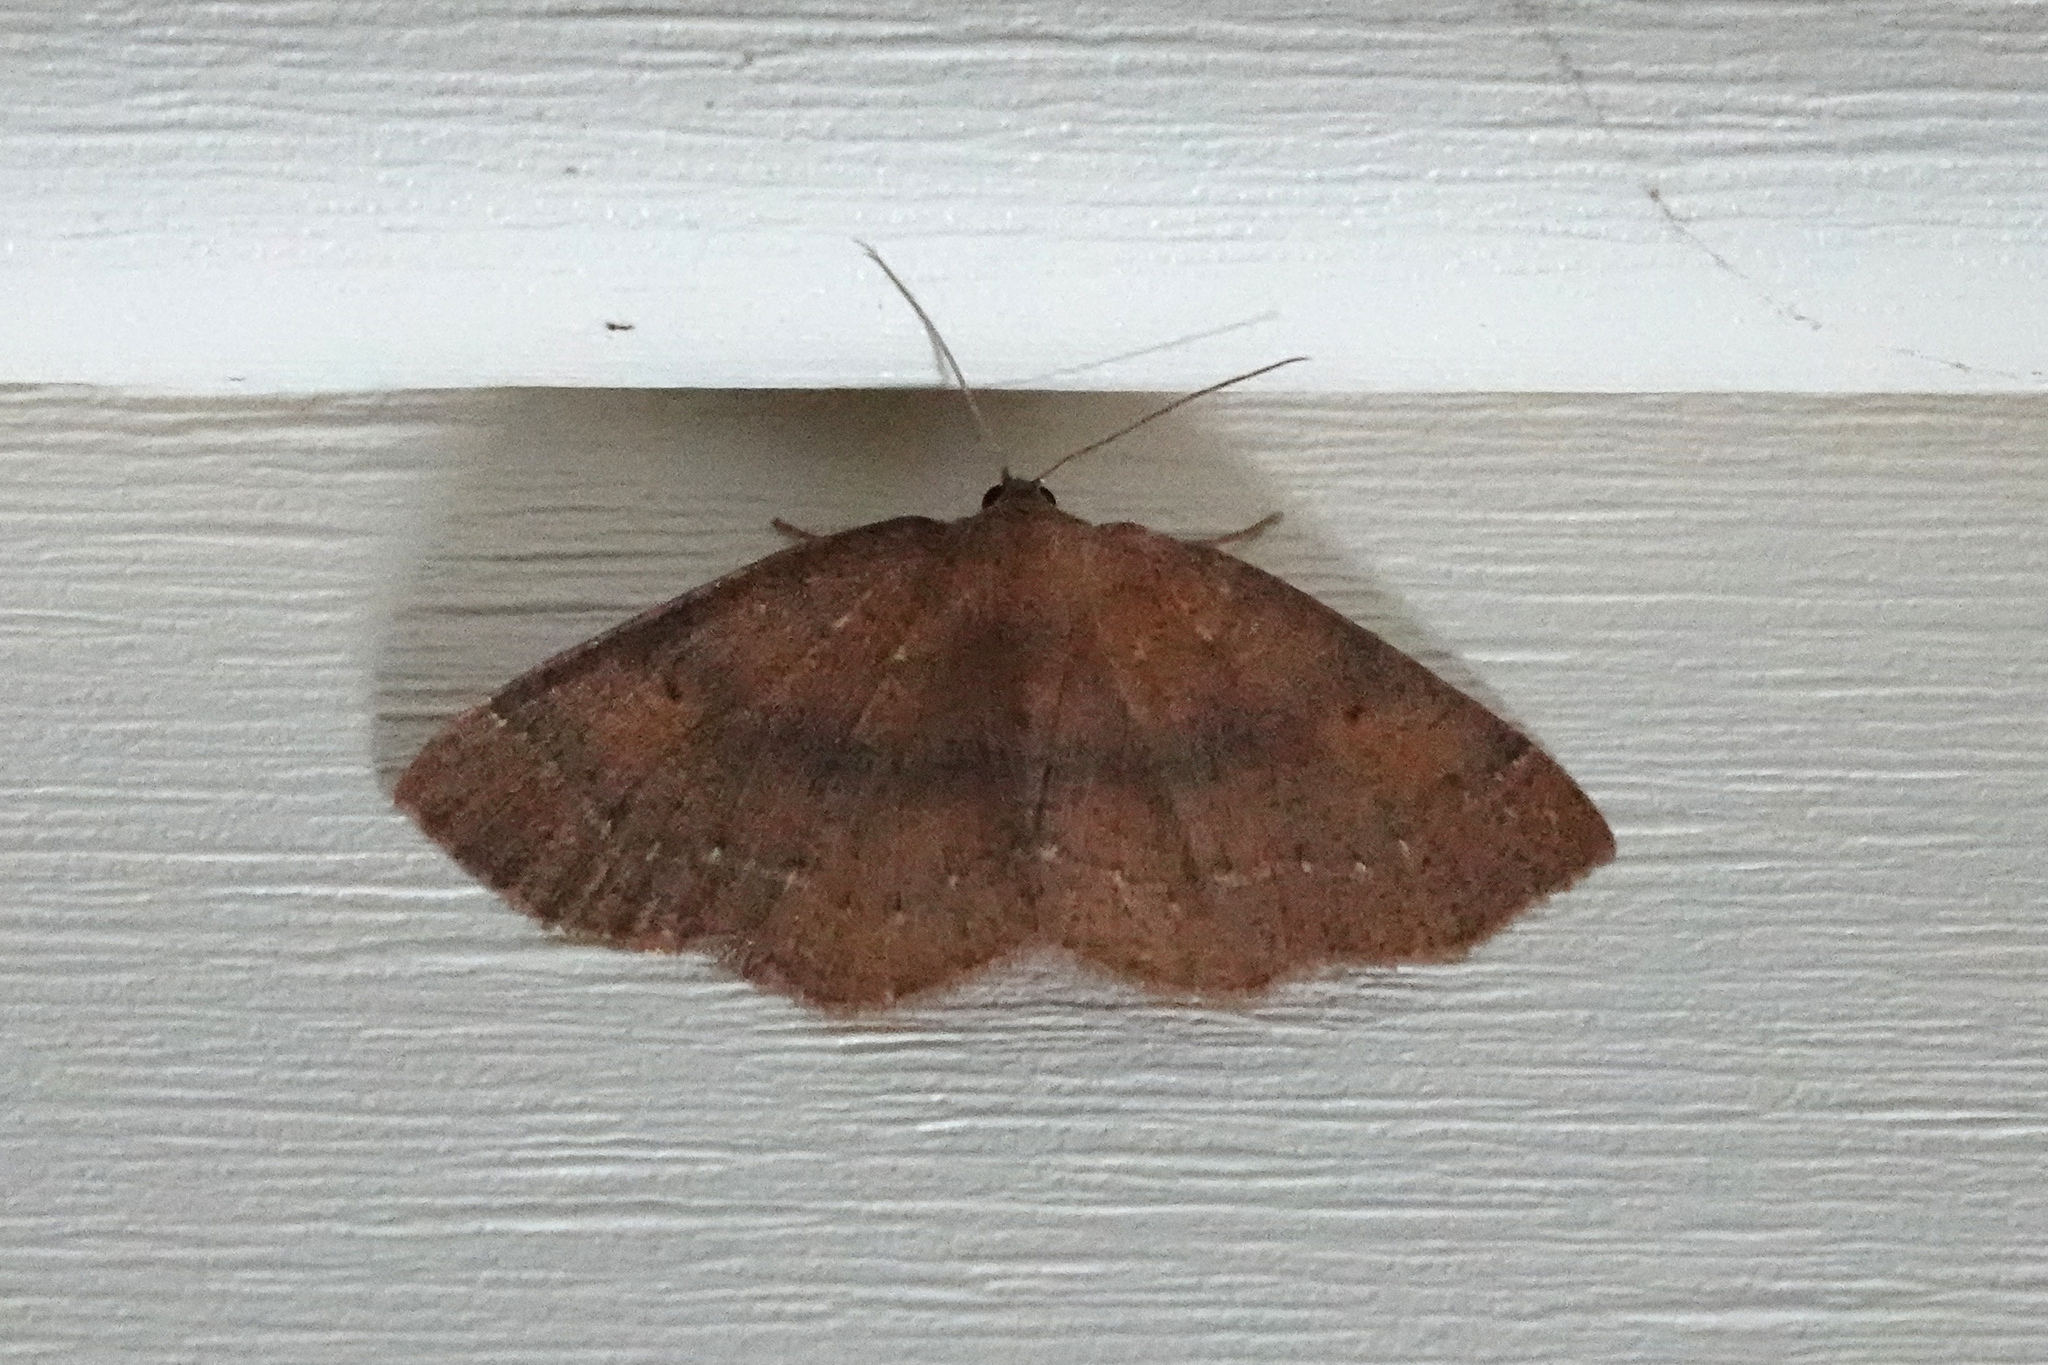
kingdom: Animalia
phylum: Arthropoda
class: Insecta
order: Lepidoptera
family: Geometridae
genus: Ilexia
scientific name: Ilexia intractata
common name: Black-dotted ruddy moth
